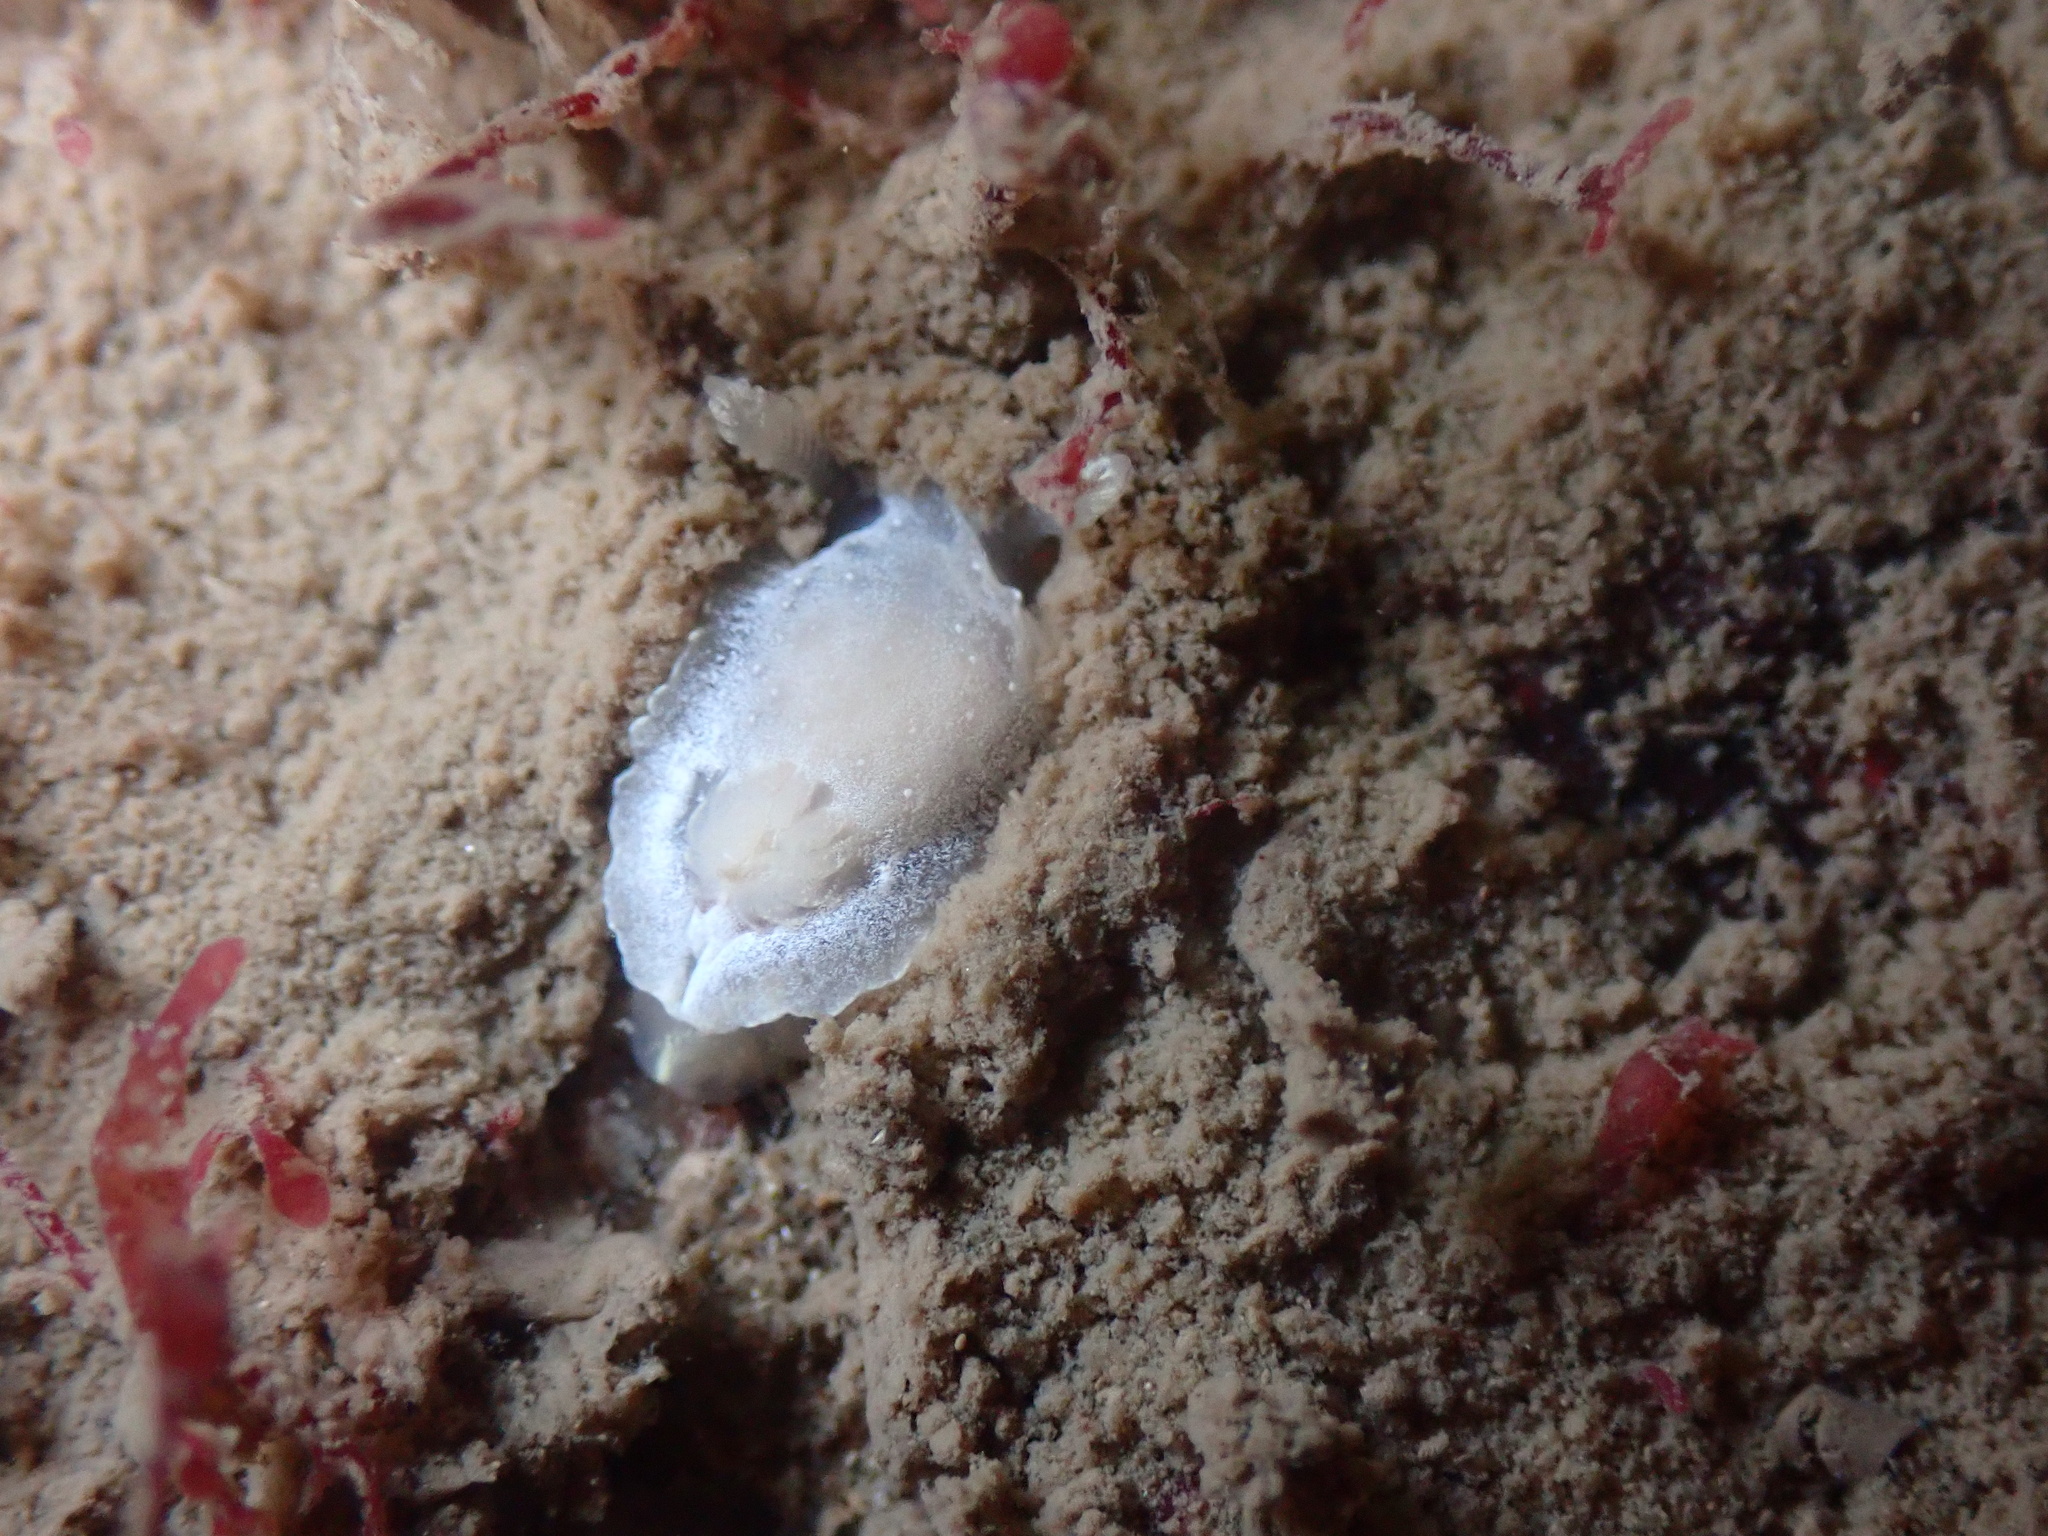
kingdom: Animalia
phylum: Mollusca
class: Gastropoda
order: Nudibranchia
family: Goniodorididae
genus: Okenia
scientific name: Okenia
